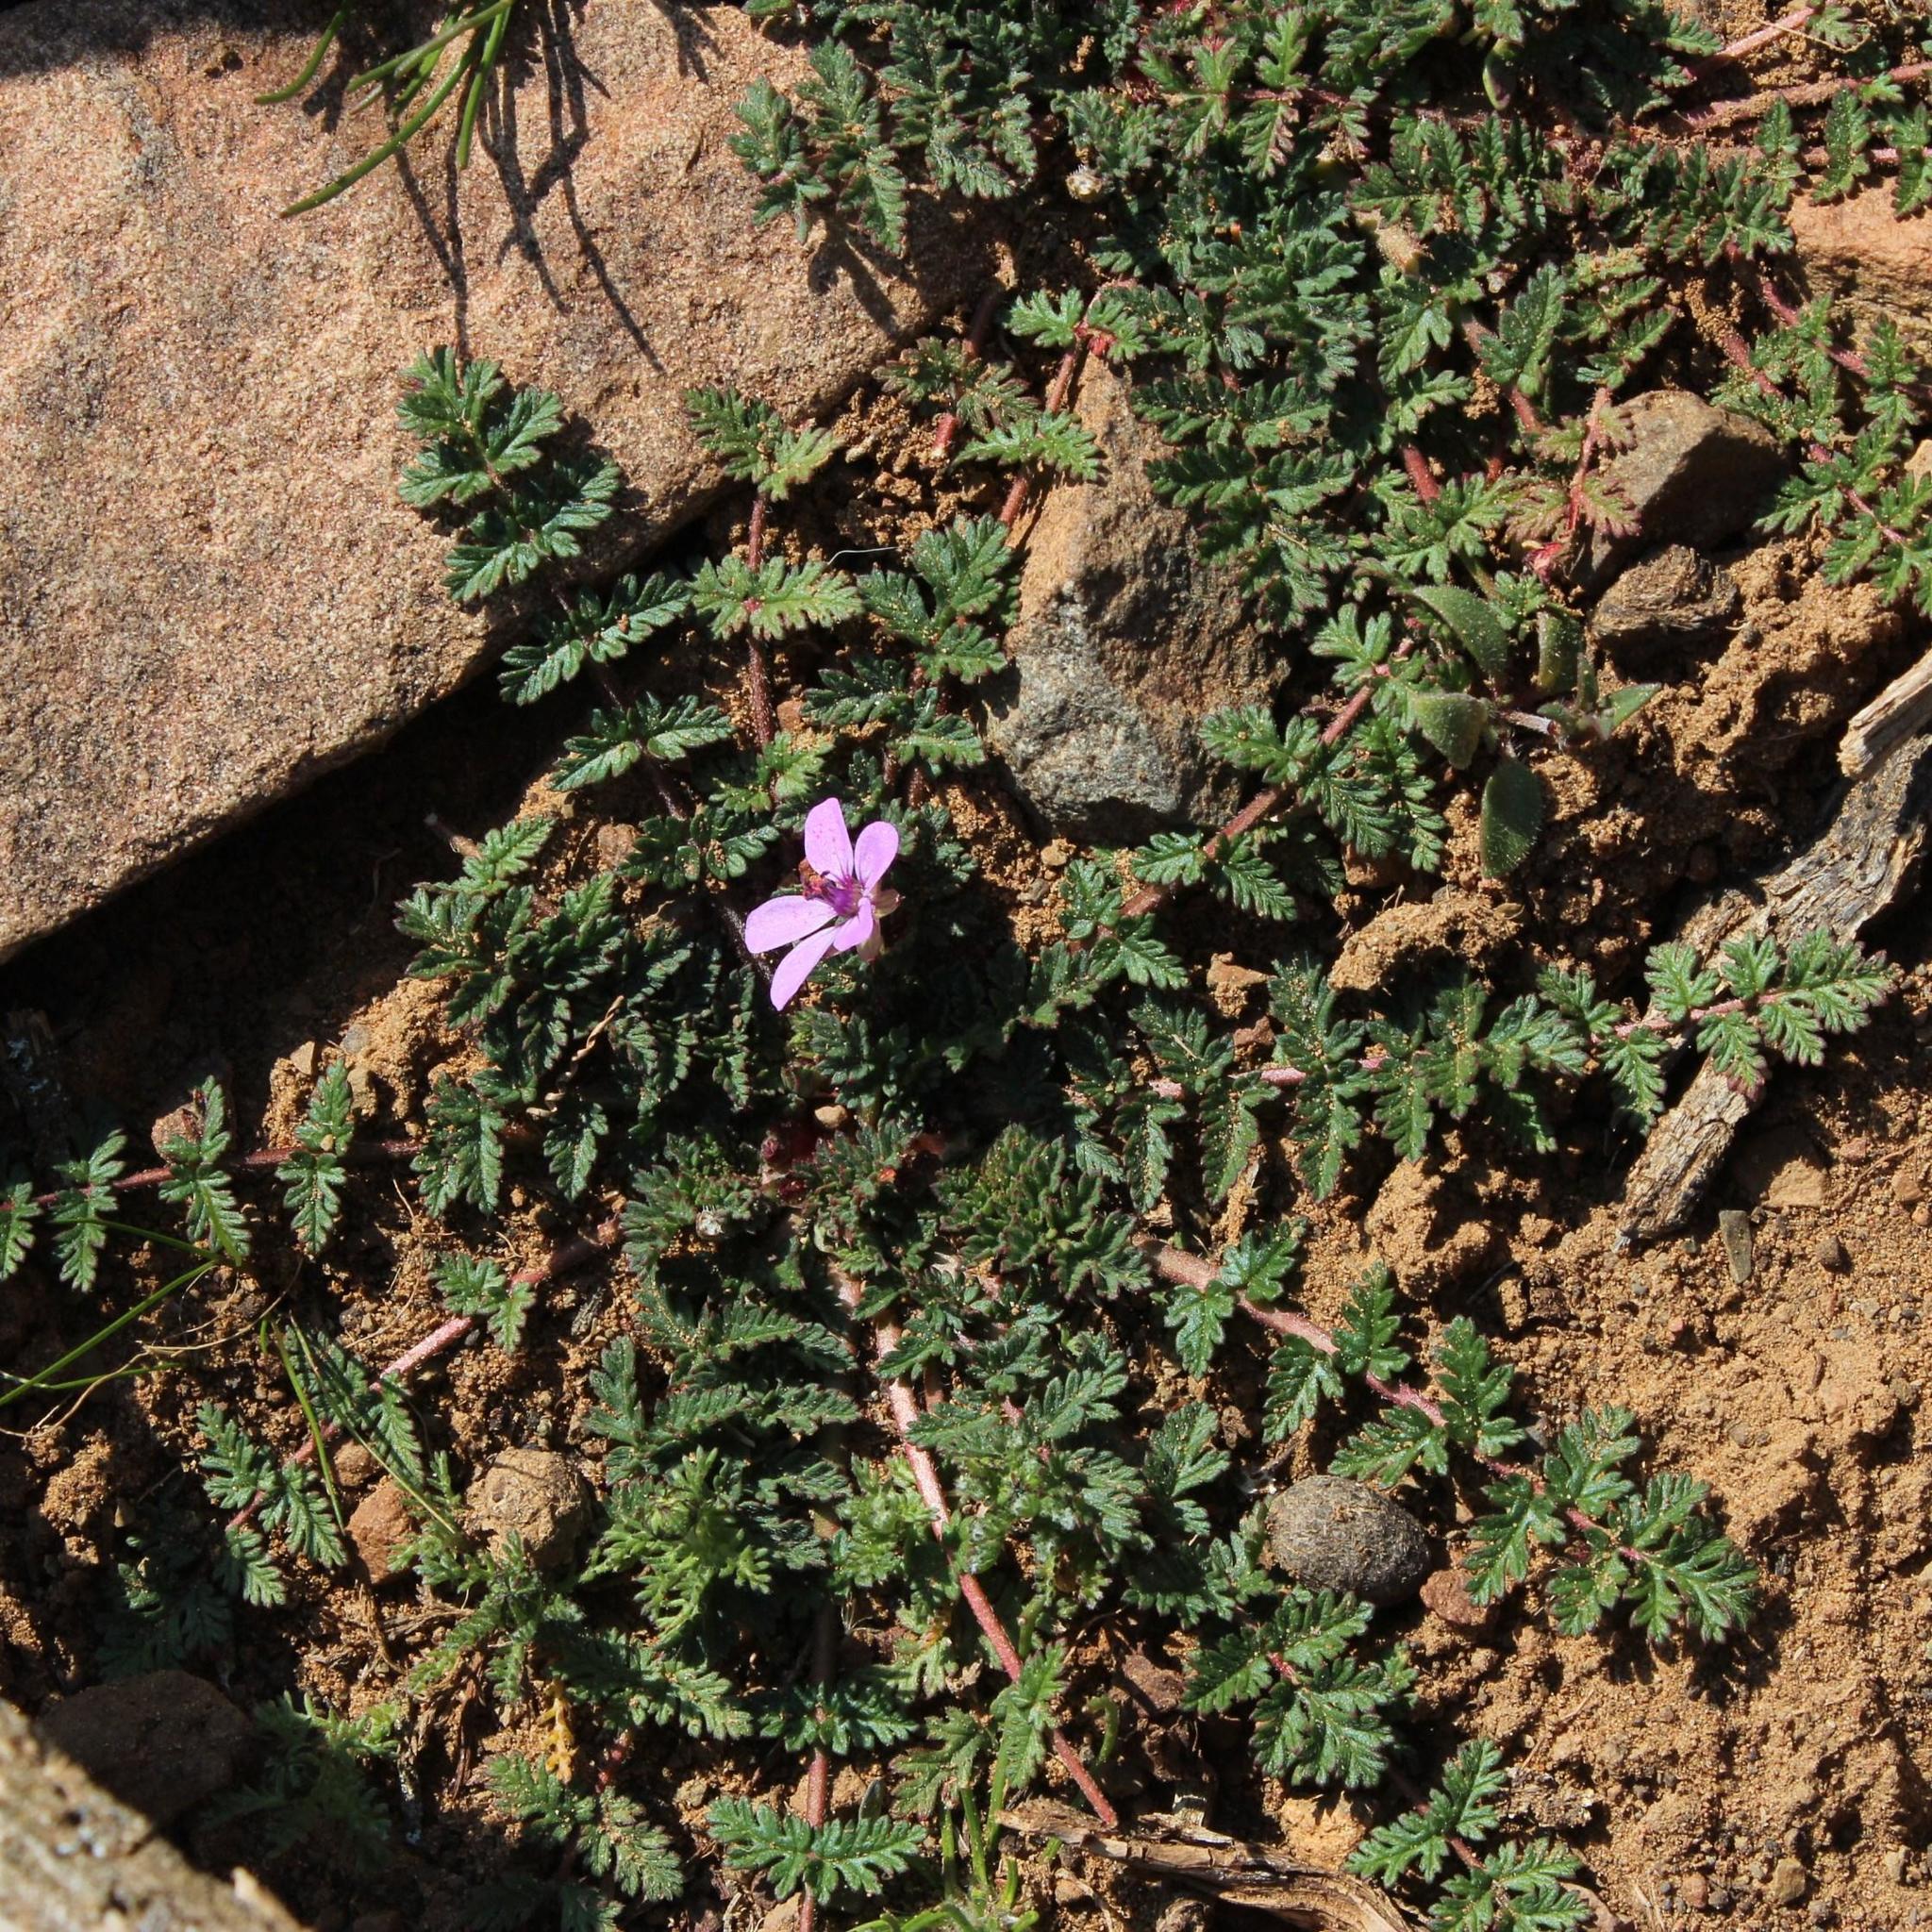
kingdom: Plantae
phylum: Tracheophyta
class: Magnoliopsida
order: Geraniales
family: Geraniaceae
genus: Erodium
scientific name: Erodium moschatum
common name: Musk stork's-bill
